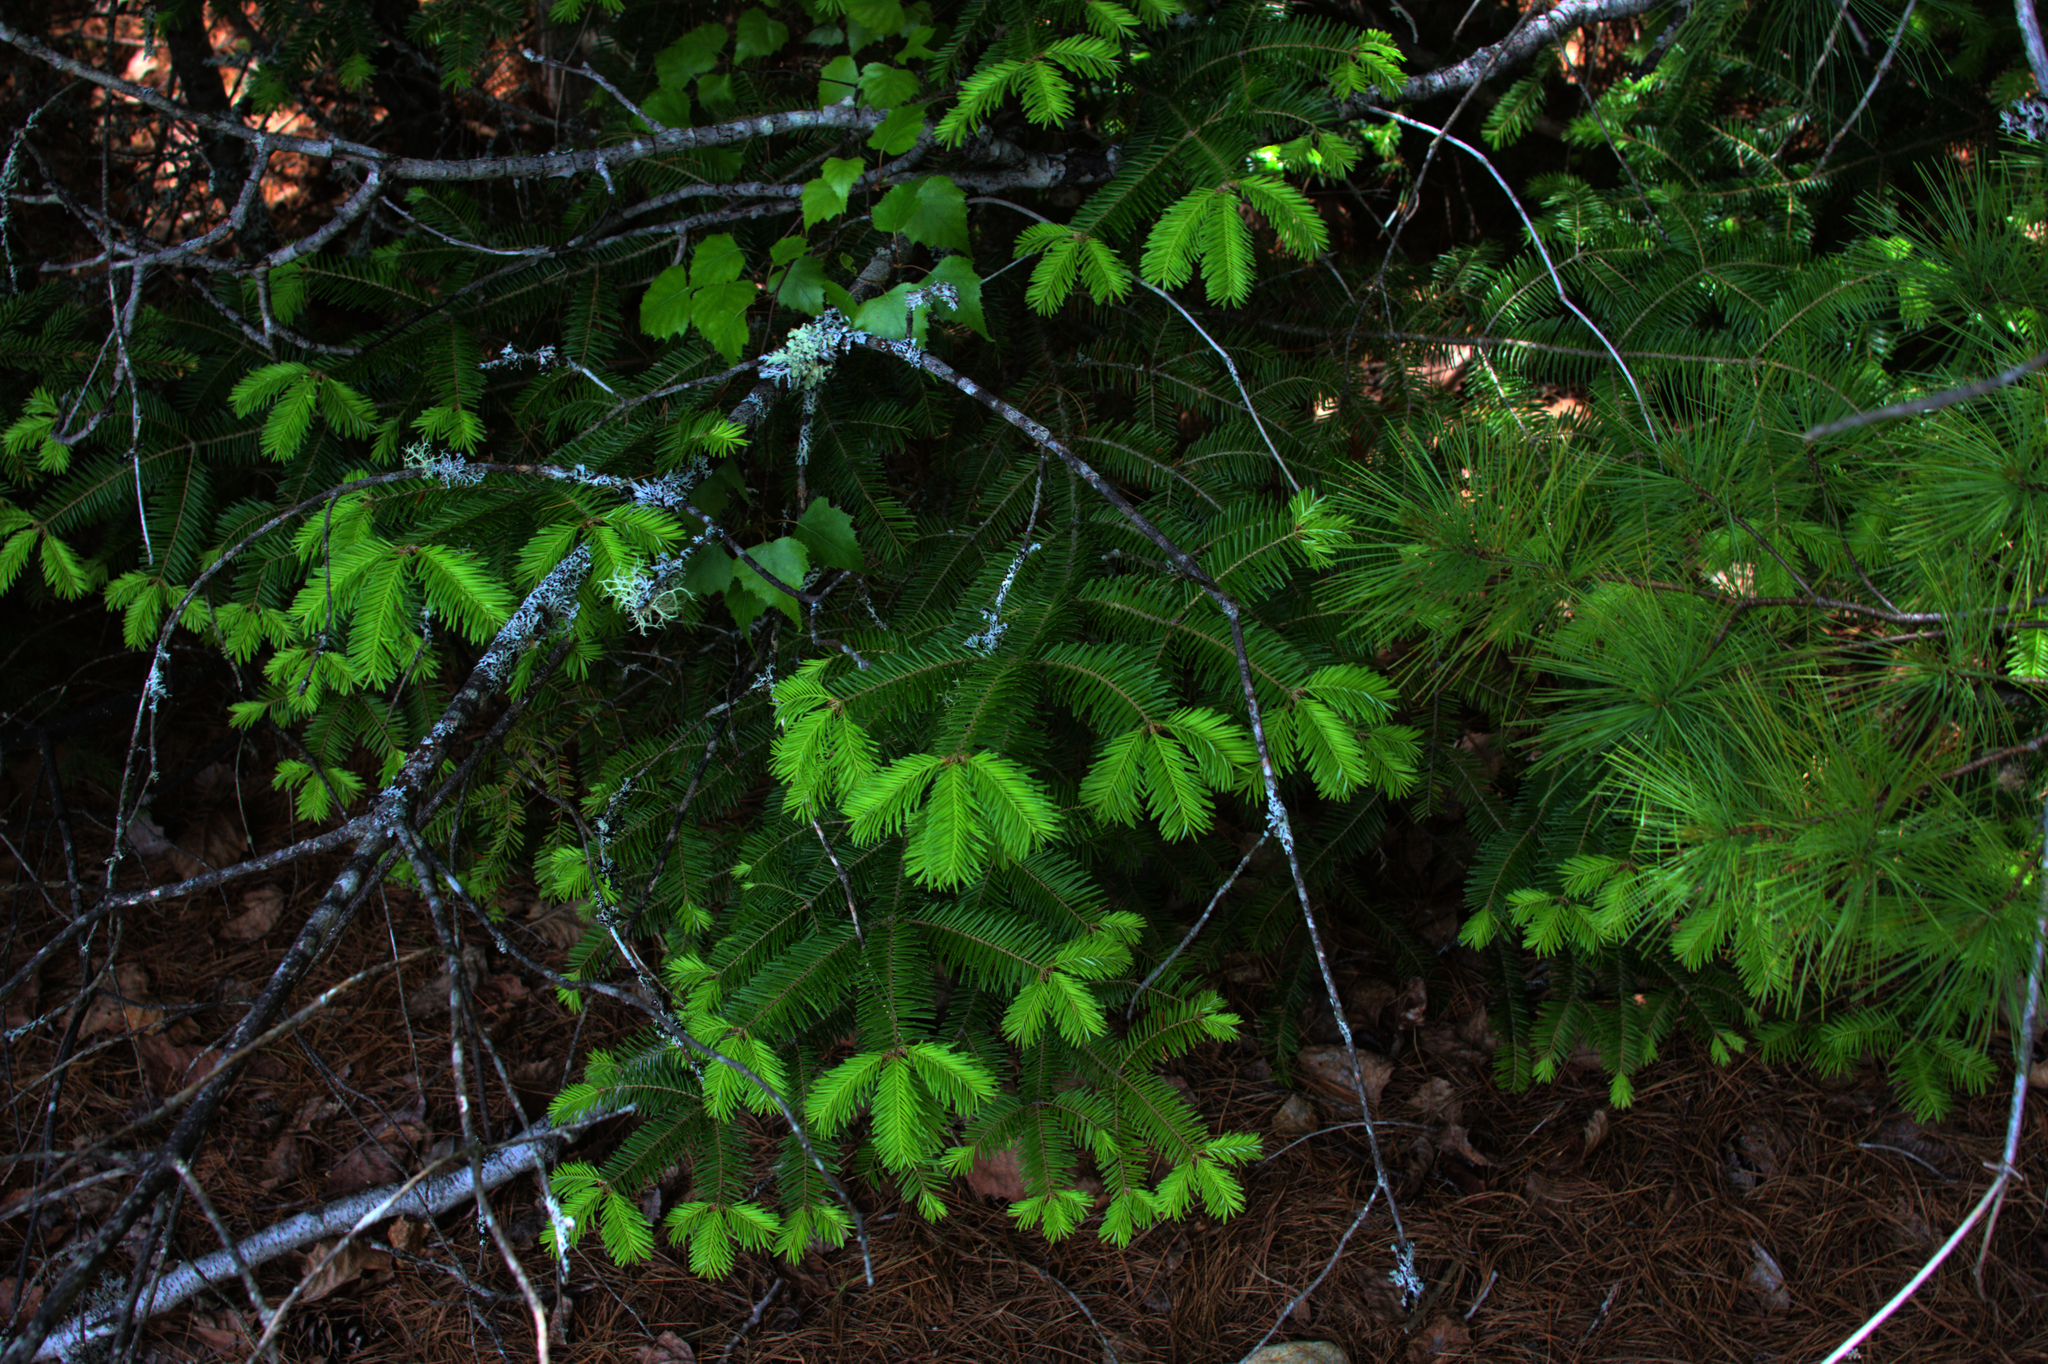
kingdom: Plantae
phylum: Tracheophyta
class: Pinopsida
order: Pinales
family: Pinaceae
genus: Abies
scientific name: Abies balsamea
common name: Balsam fir
